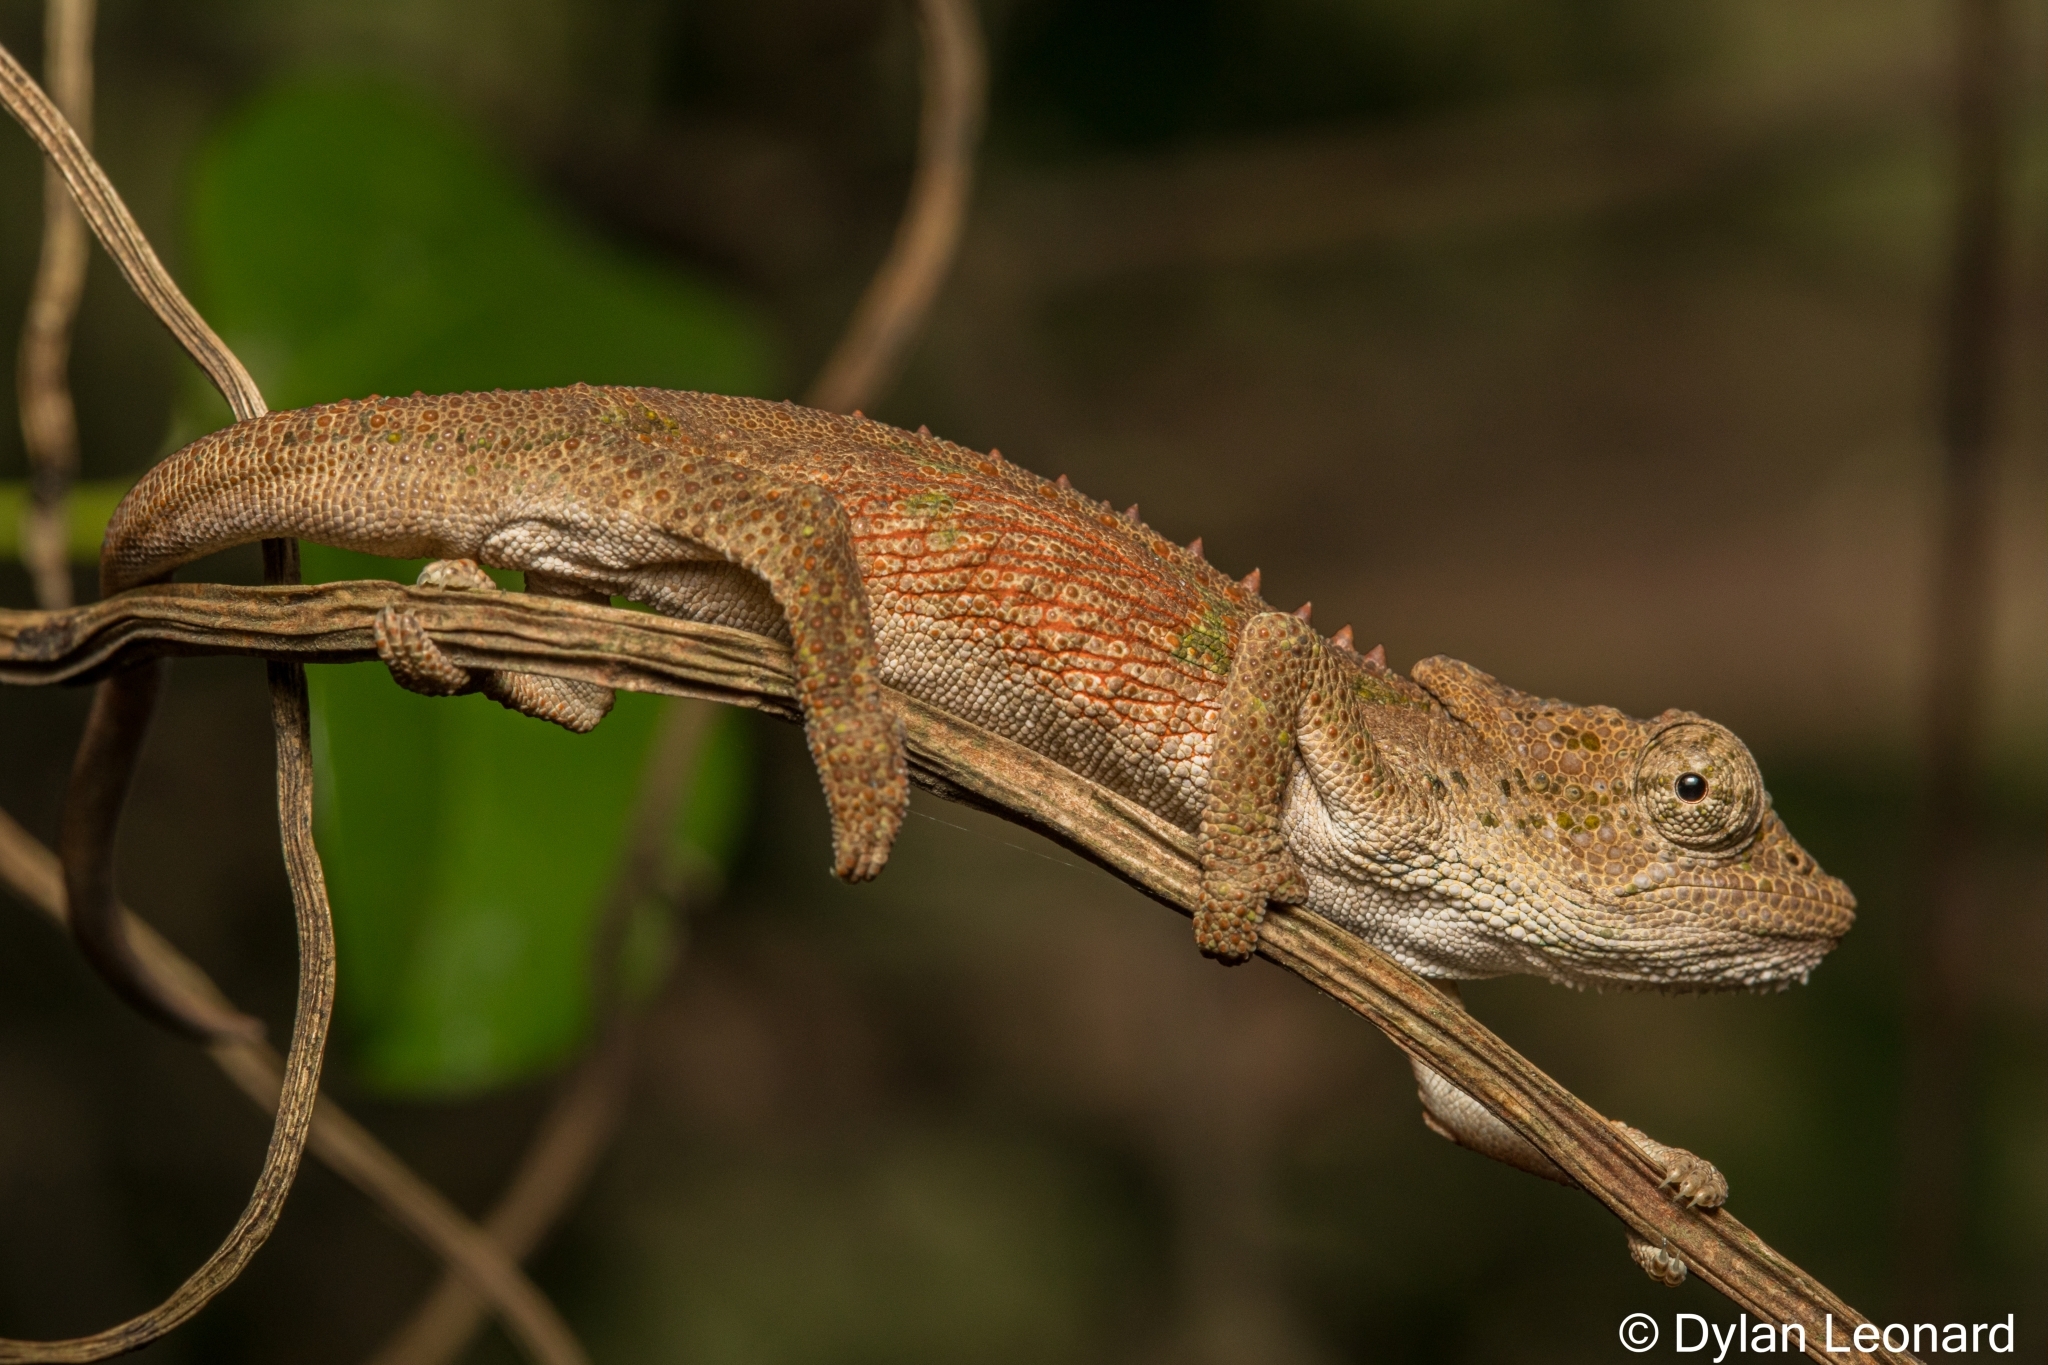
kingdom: Animalia
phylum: Chordata
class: Squamata
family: Chamaeleonidae
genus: Bradypodion
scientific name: Bradypodion caeruleogula
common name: Dhlinza dwarf chameleon
